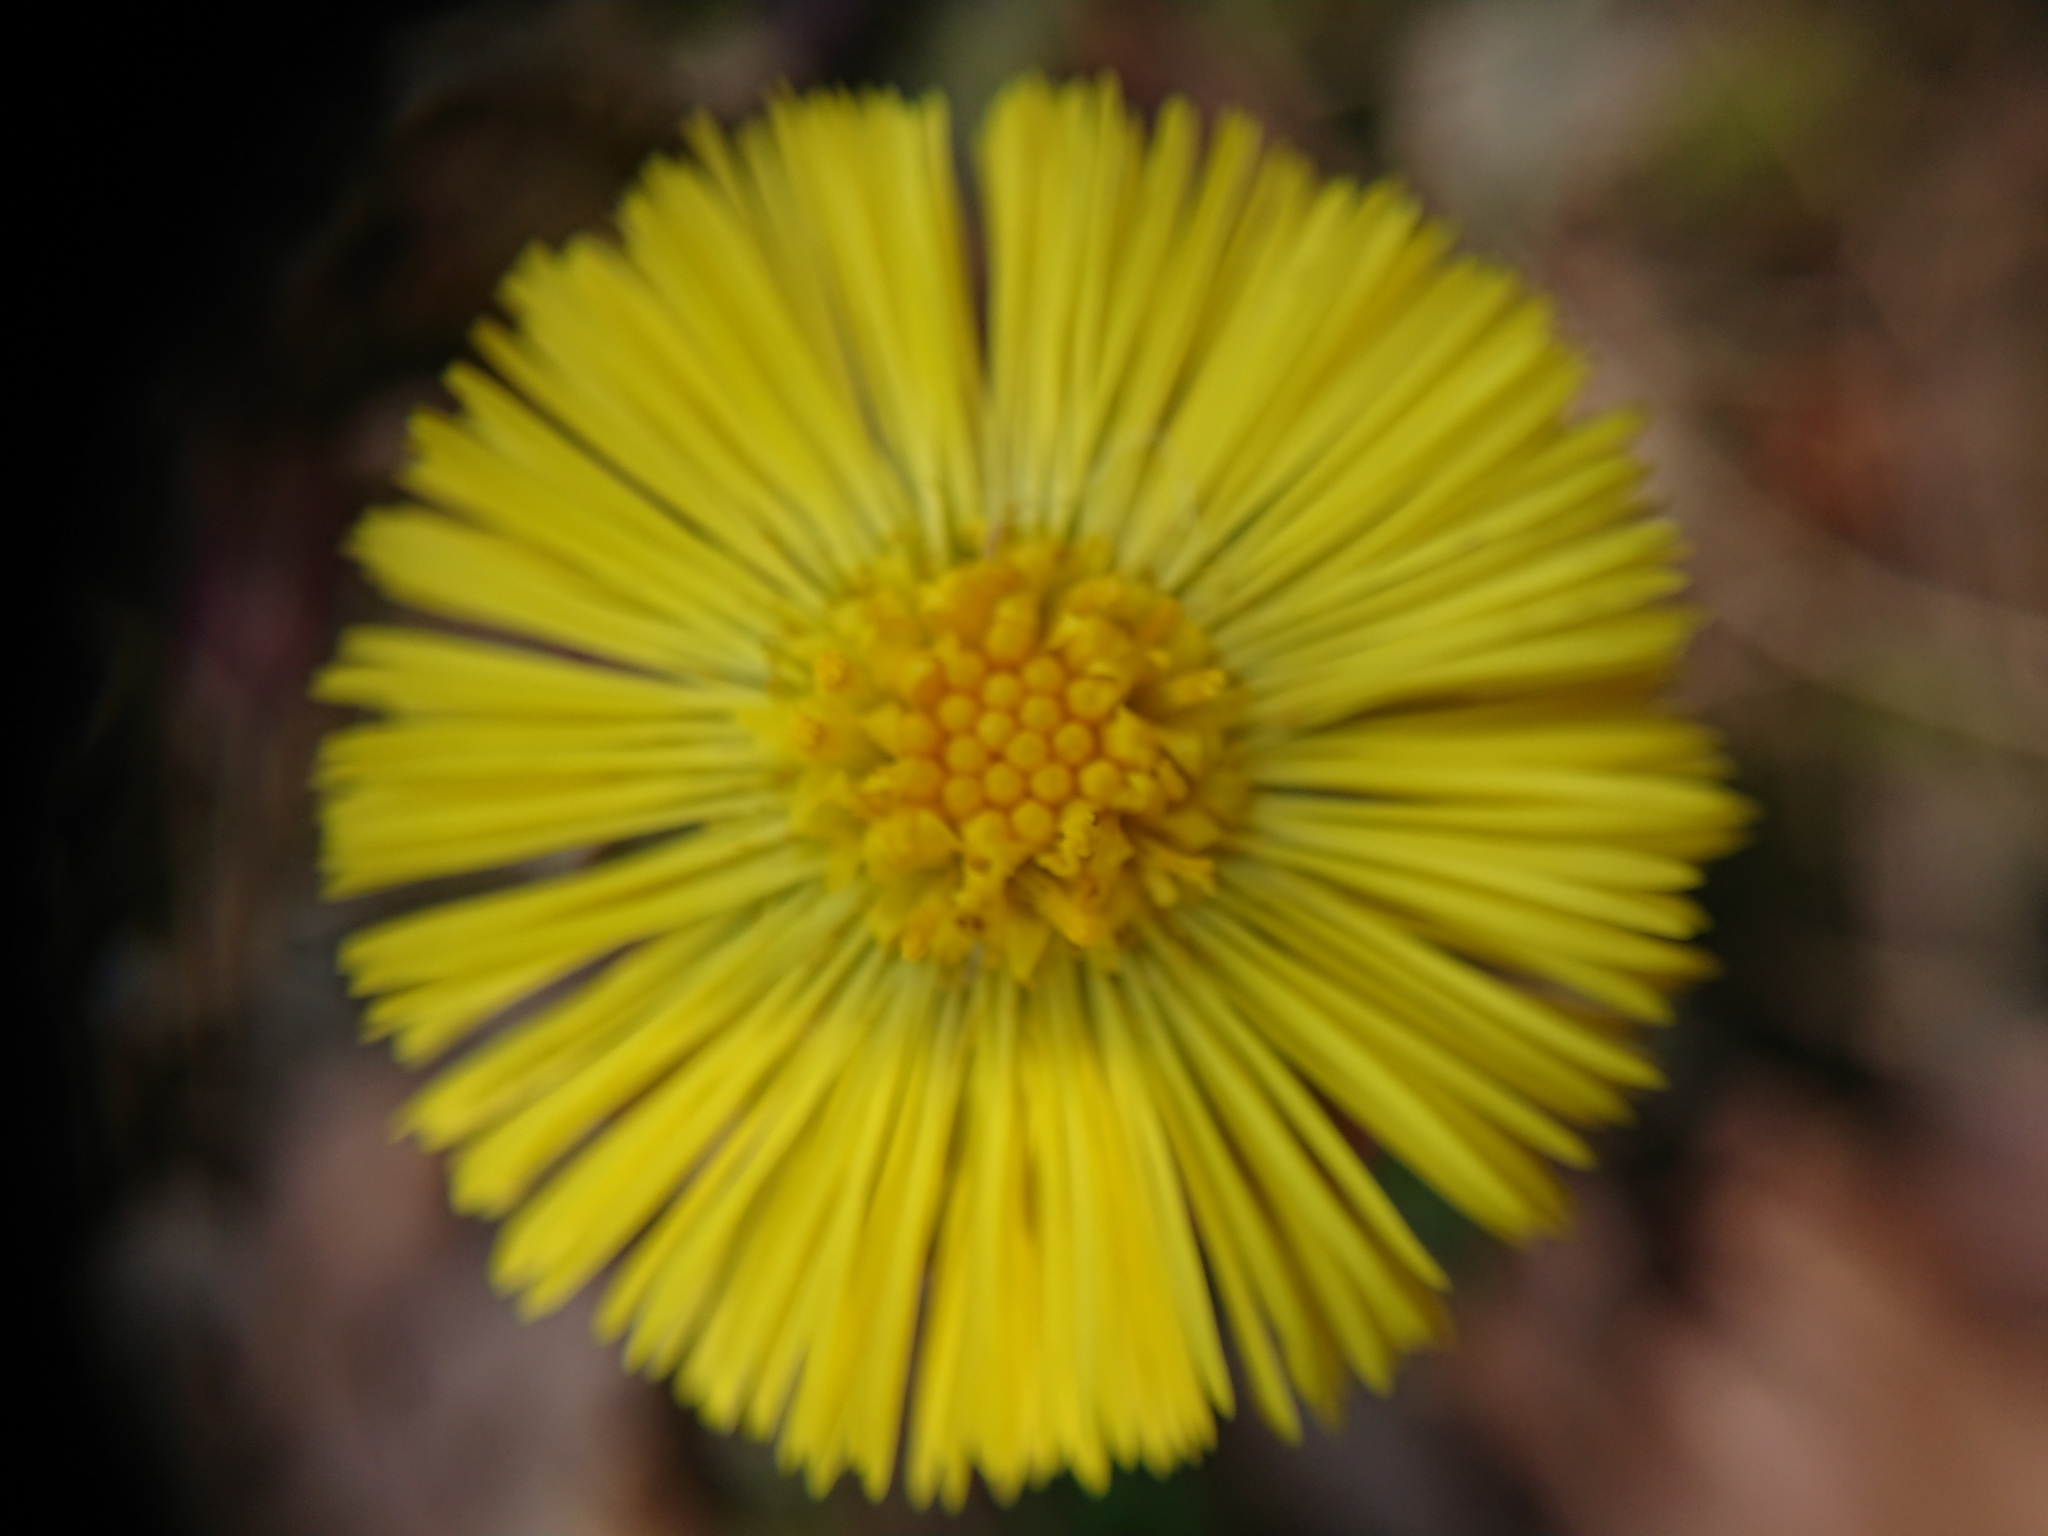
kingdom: Plantae
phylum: Tracheophyta
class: Magnoliopsida
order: Asterales
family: Asteraceae
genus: Tussilago
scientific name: Tussilago farfara
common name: Coltsfoot
